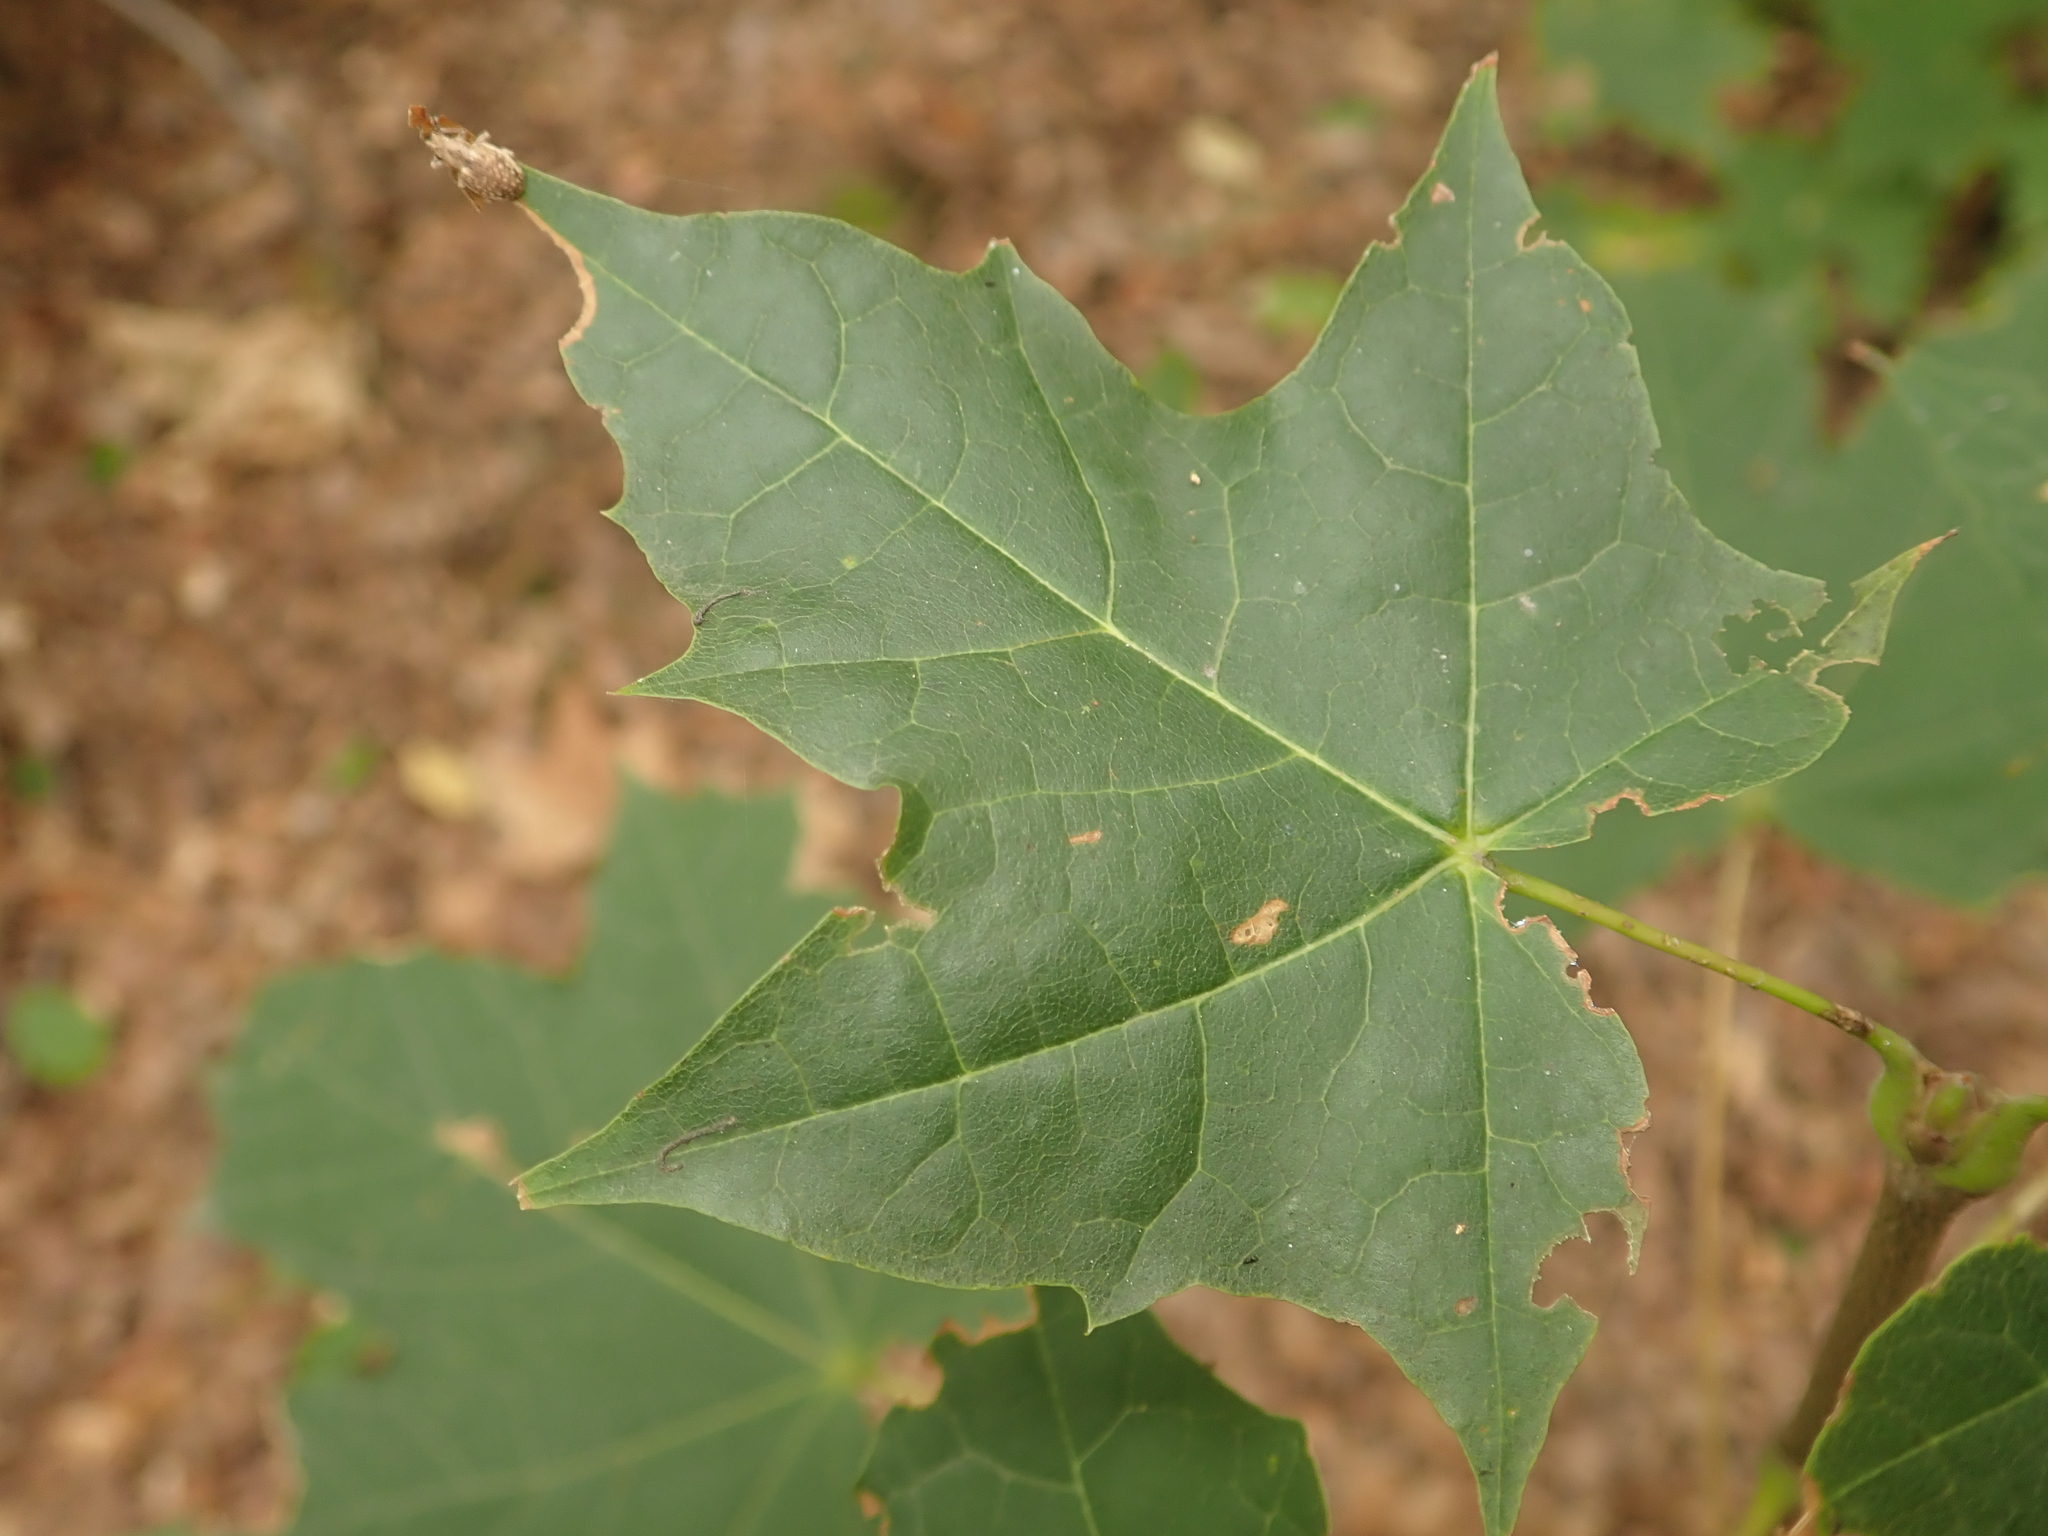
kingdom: Plantae
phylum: Tracheophyta
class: Magnoliopsida
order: Sapindales
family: Sapindaceae
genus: Acer
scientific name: Acer platanoides
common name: Norway maple
